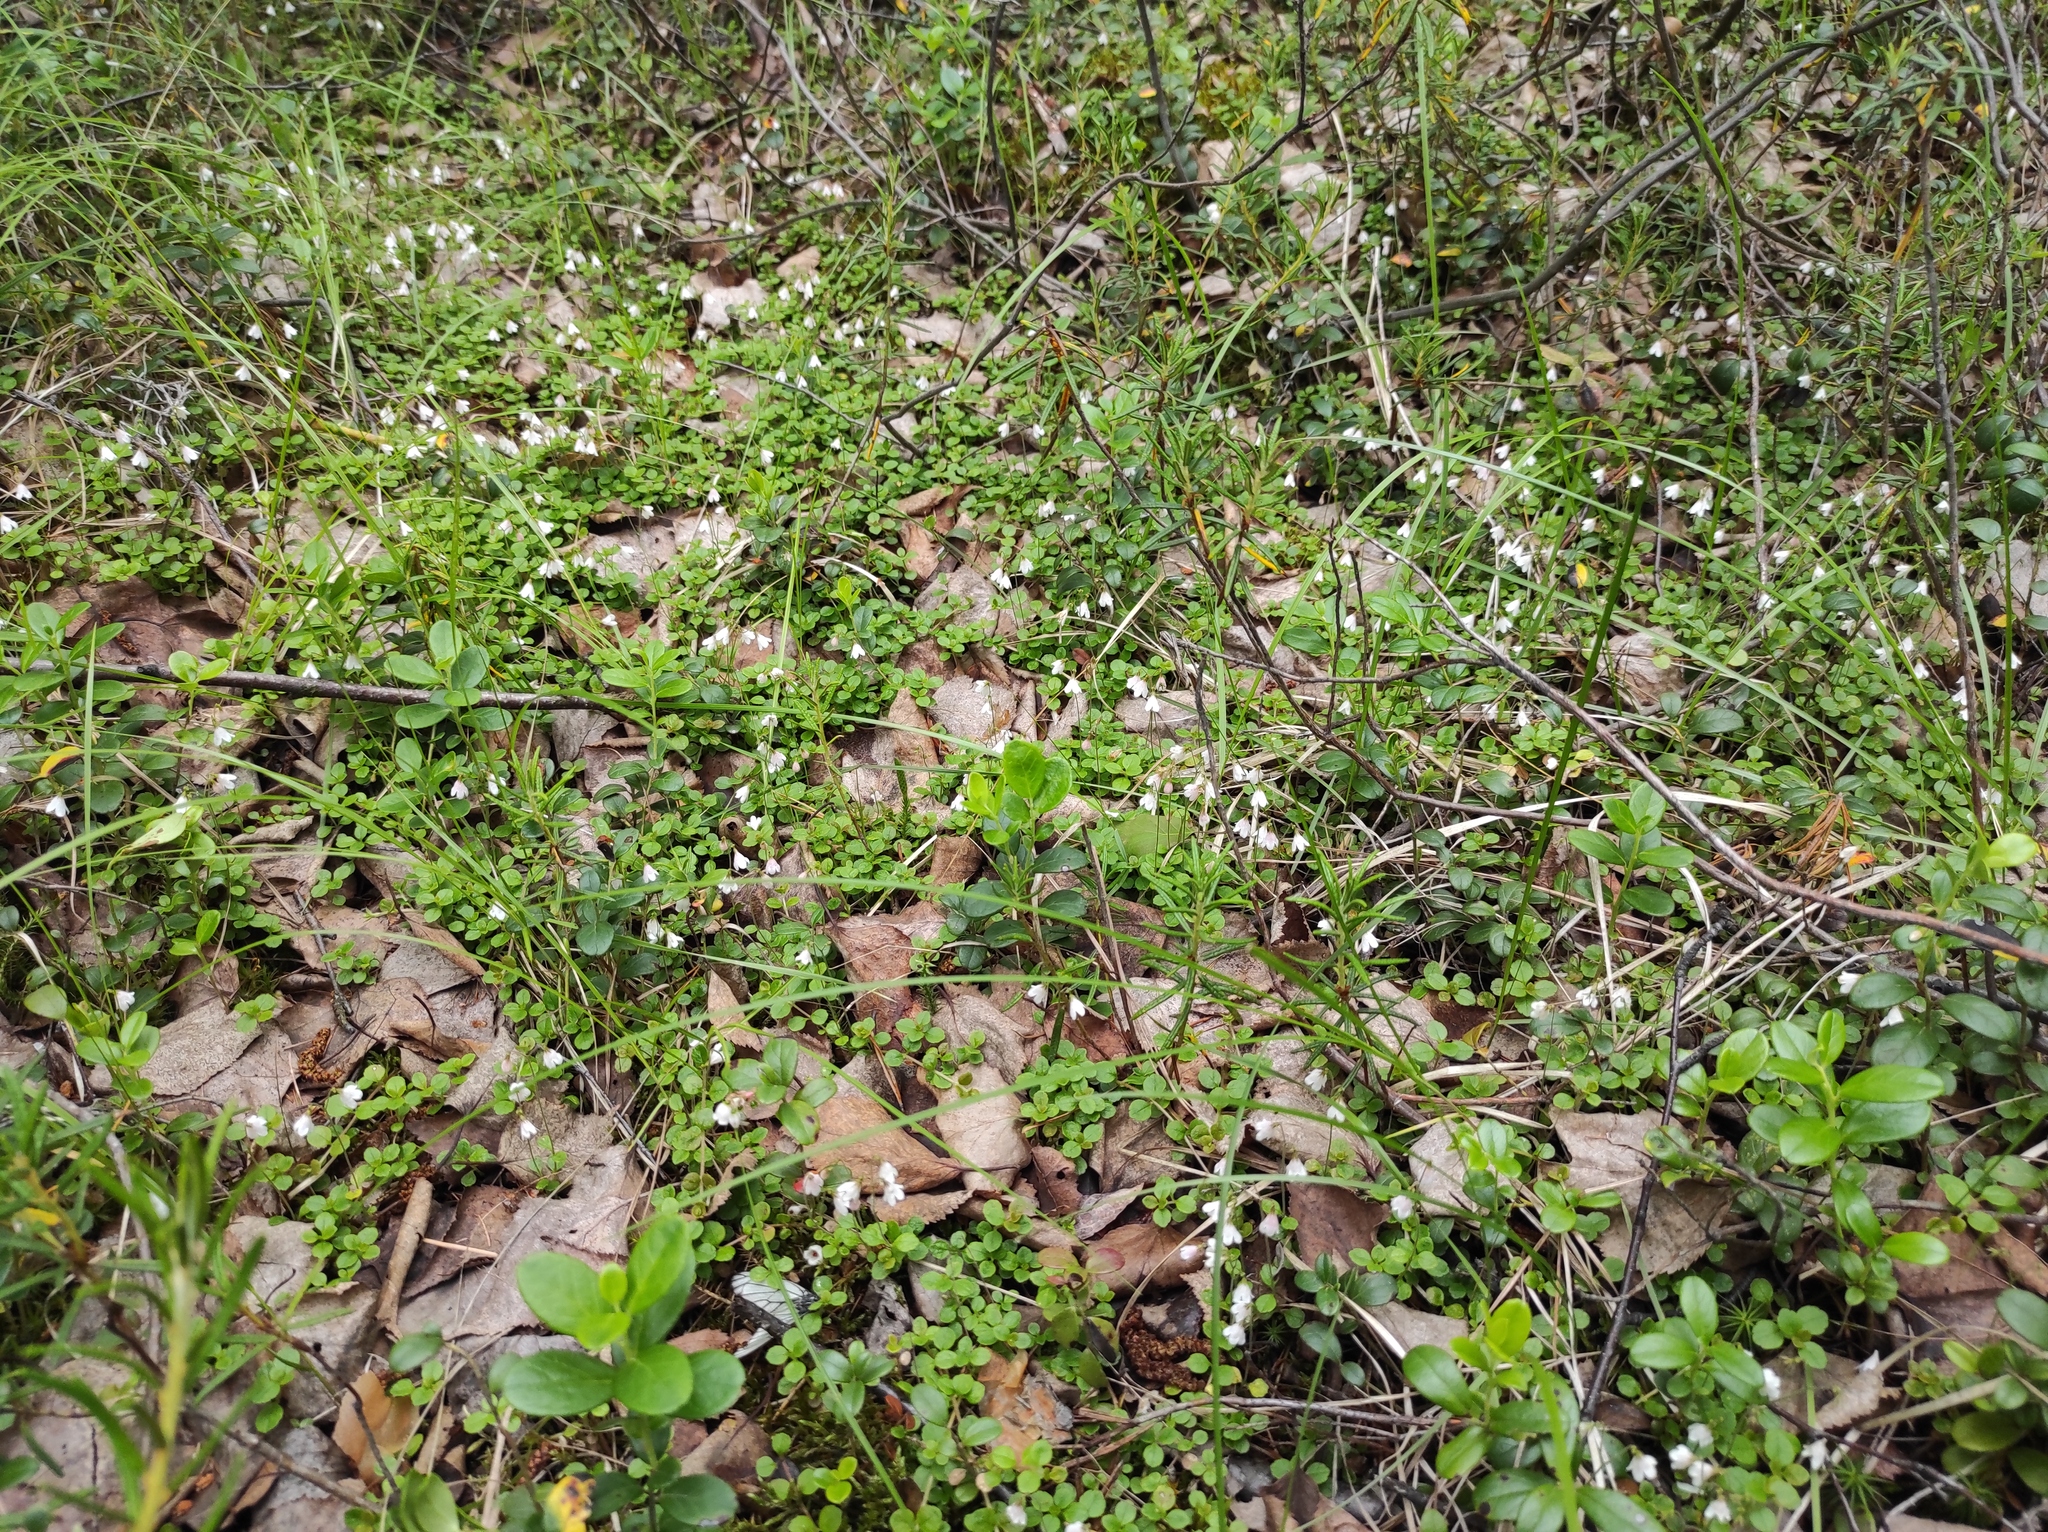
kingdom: Plantae
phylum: Tracheophyta
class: Magnoliopsida
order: Dipsacales
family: Caprifoliaceae
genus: Linnaea
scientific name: Linnaea borealis
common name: Twinflower
